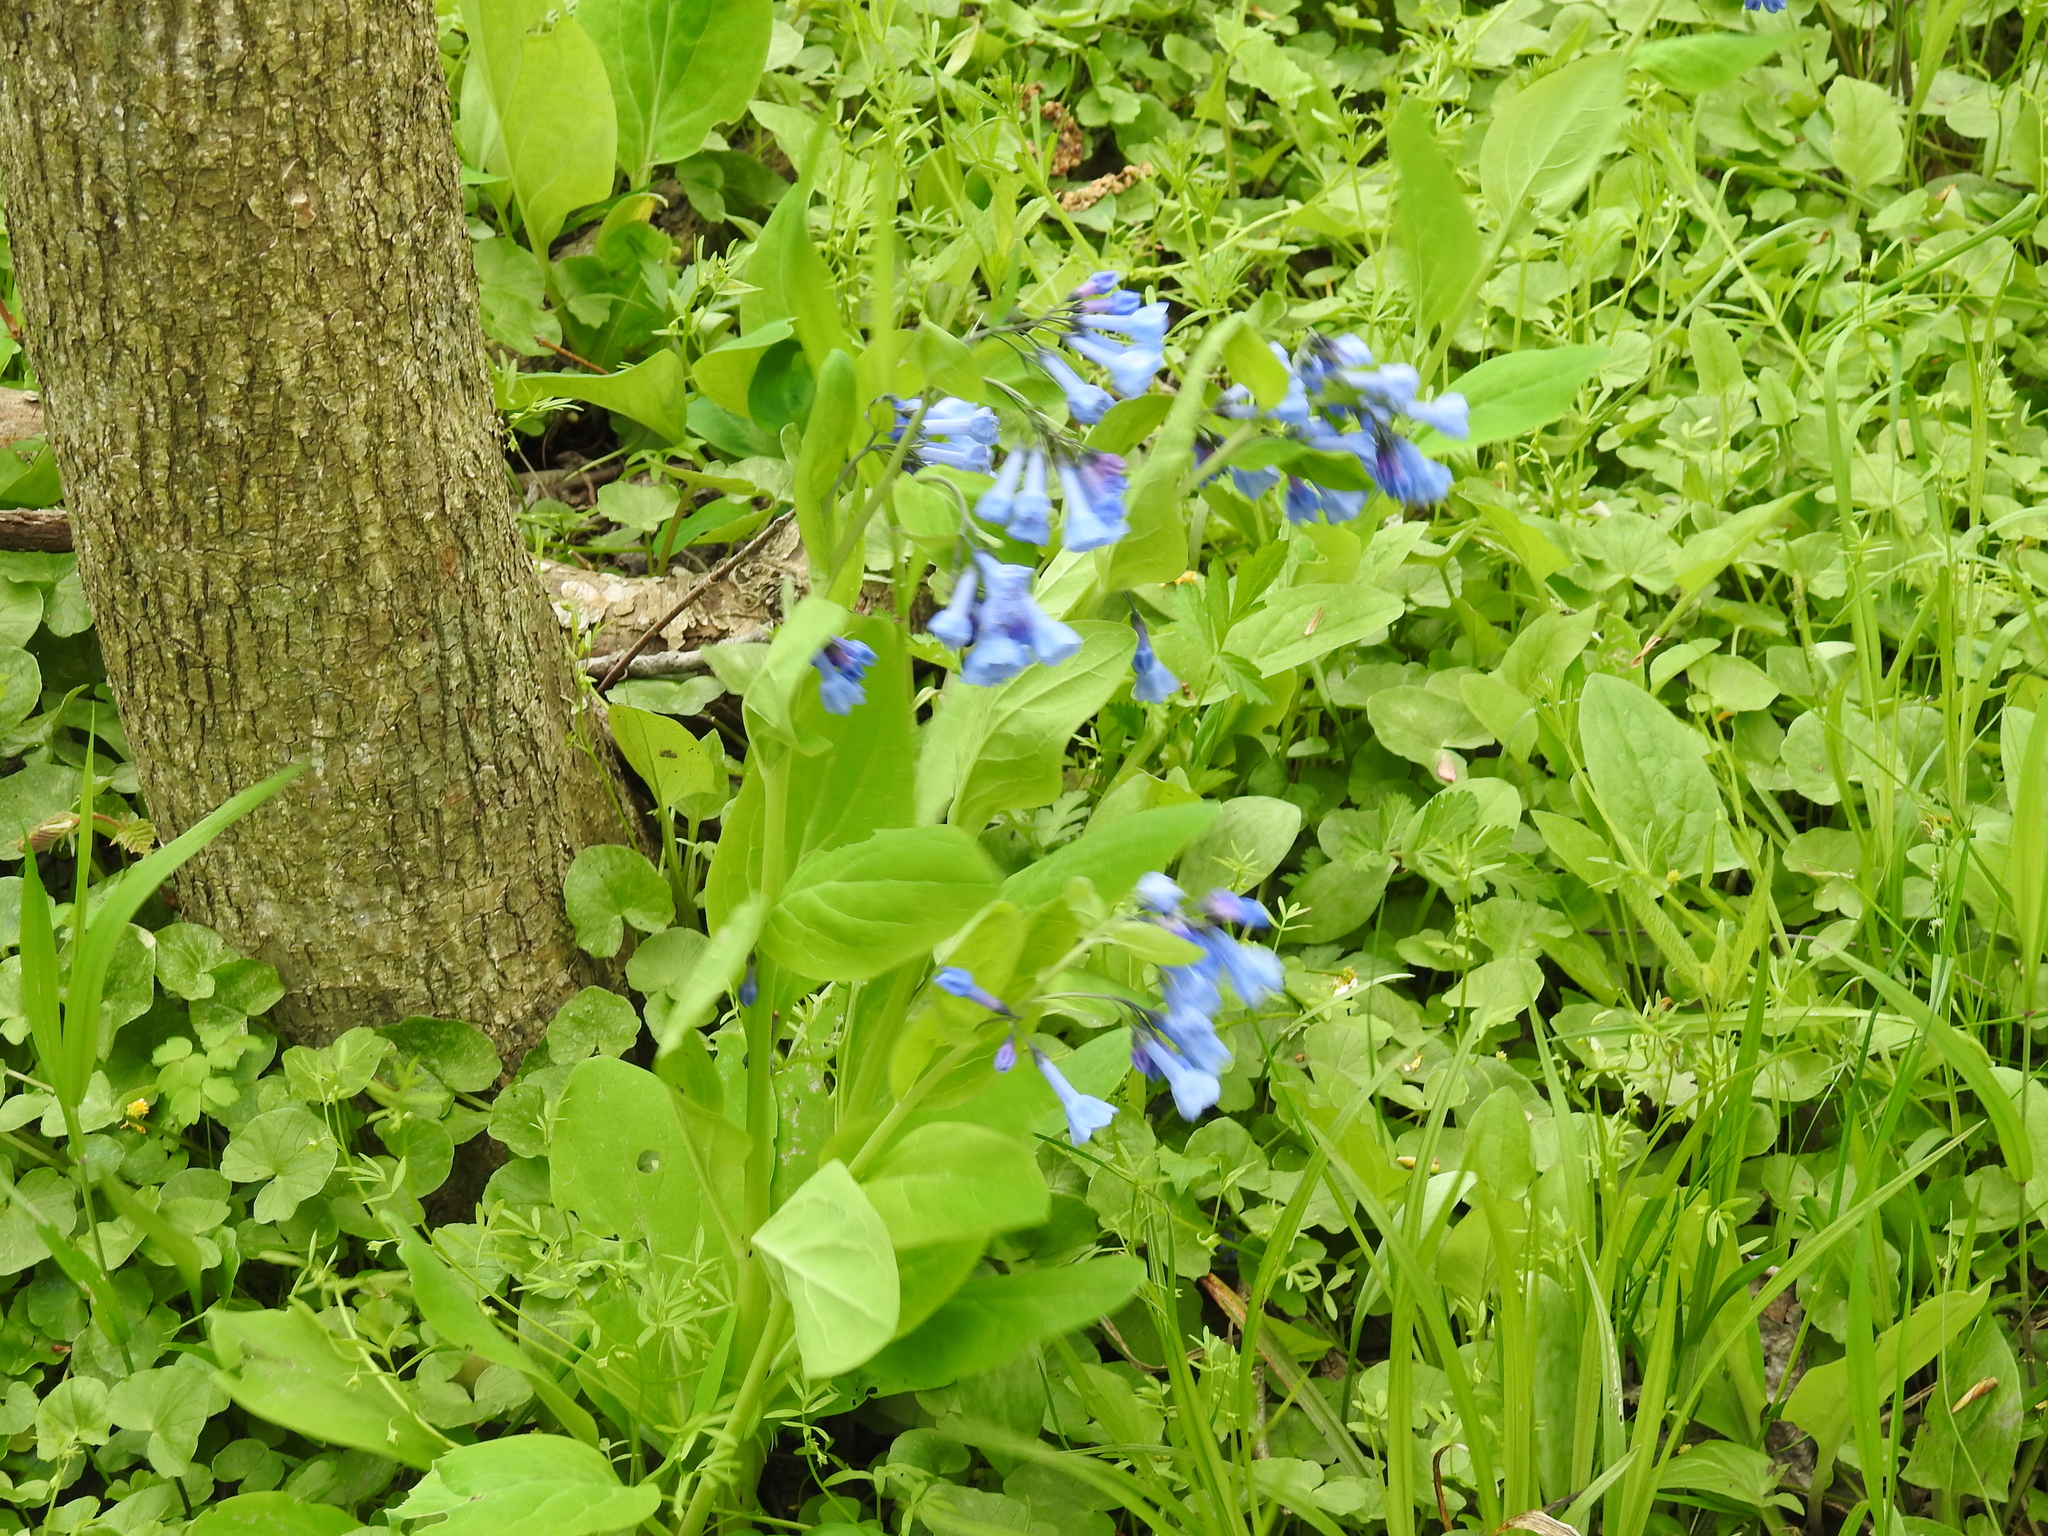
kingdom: Plantae
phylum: Tracheophyta
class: Magnoliopsida
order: Boraginales
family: Boraginaceae
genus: Mertensia
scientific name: Mertensia virginica
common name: Virginia bluebells
